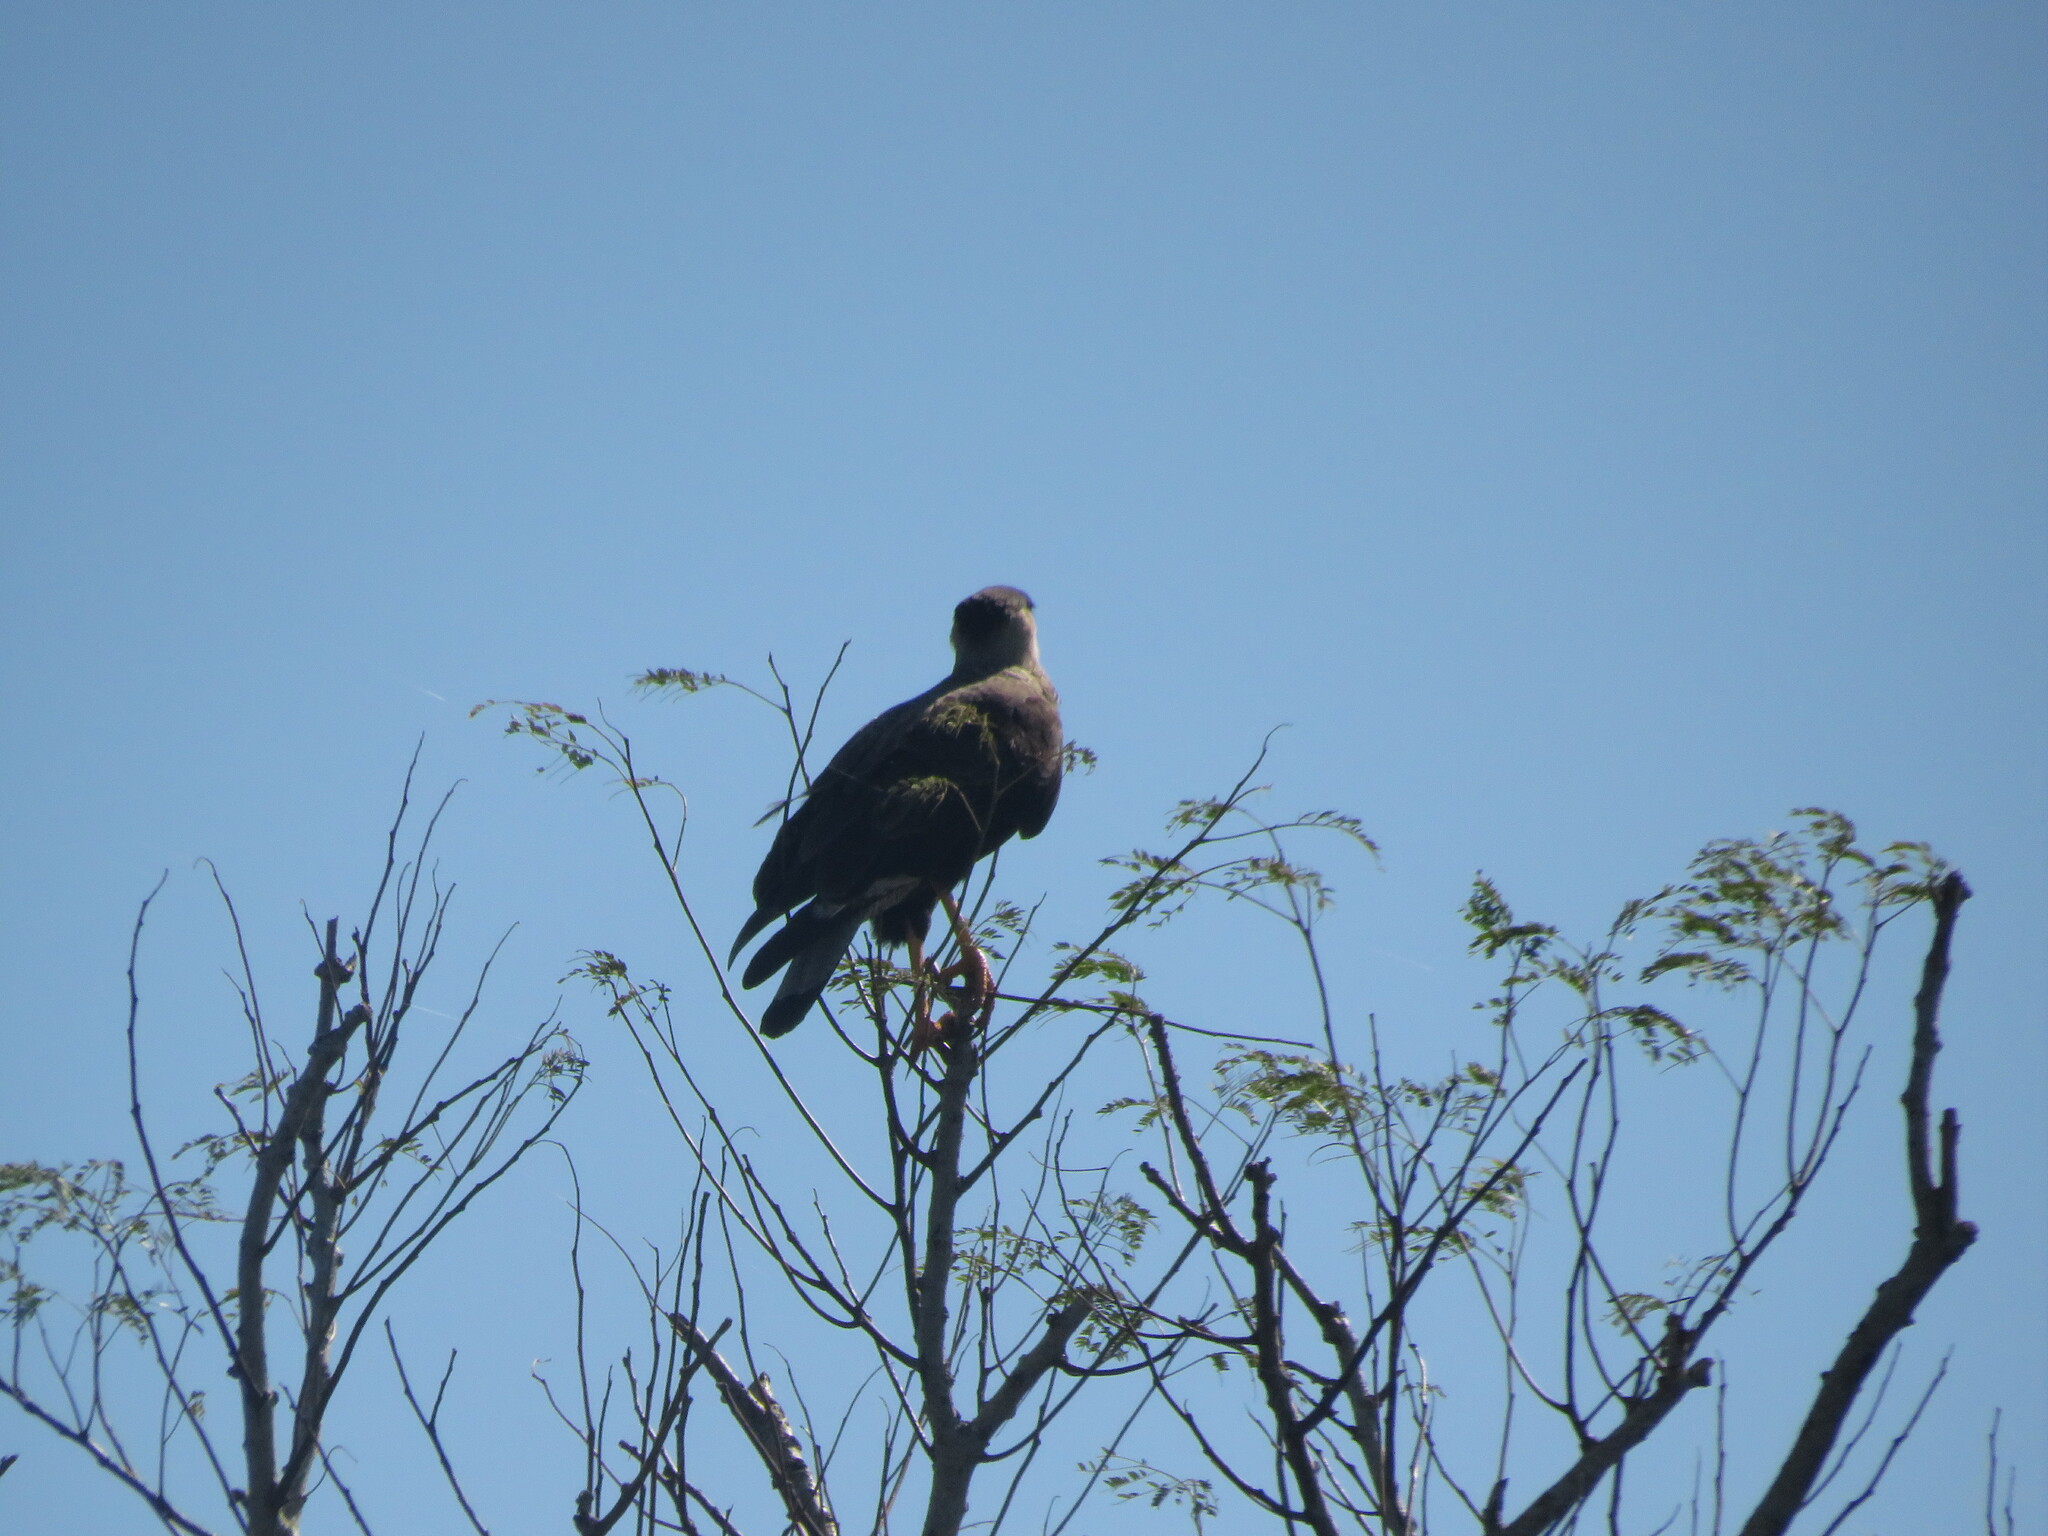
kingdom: Animalia
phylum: Chordata
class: Aves
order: Falconiformes
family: Falconidae
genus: Caracara
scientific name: Caracara plancus
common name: Southern caracara
